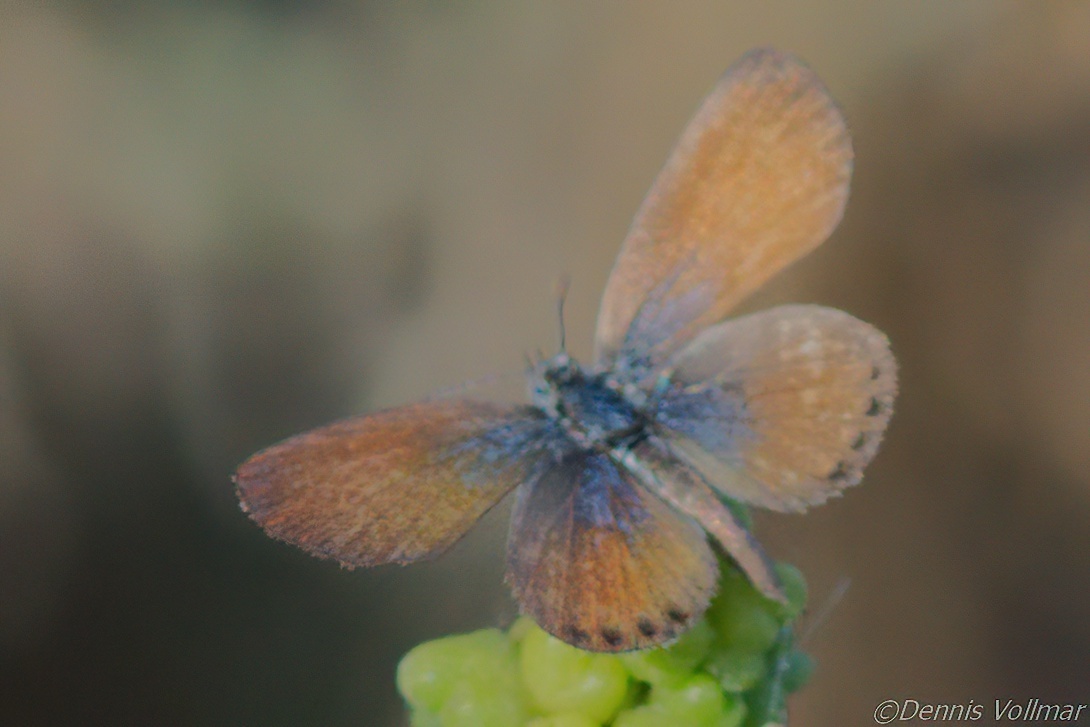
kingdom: Animalia
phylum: Arthropoda
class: Insecta
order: Lepidoptera
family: Lycaenidae
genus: Brephidium
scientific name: Brephidium exilis
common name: Pygmy blue
